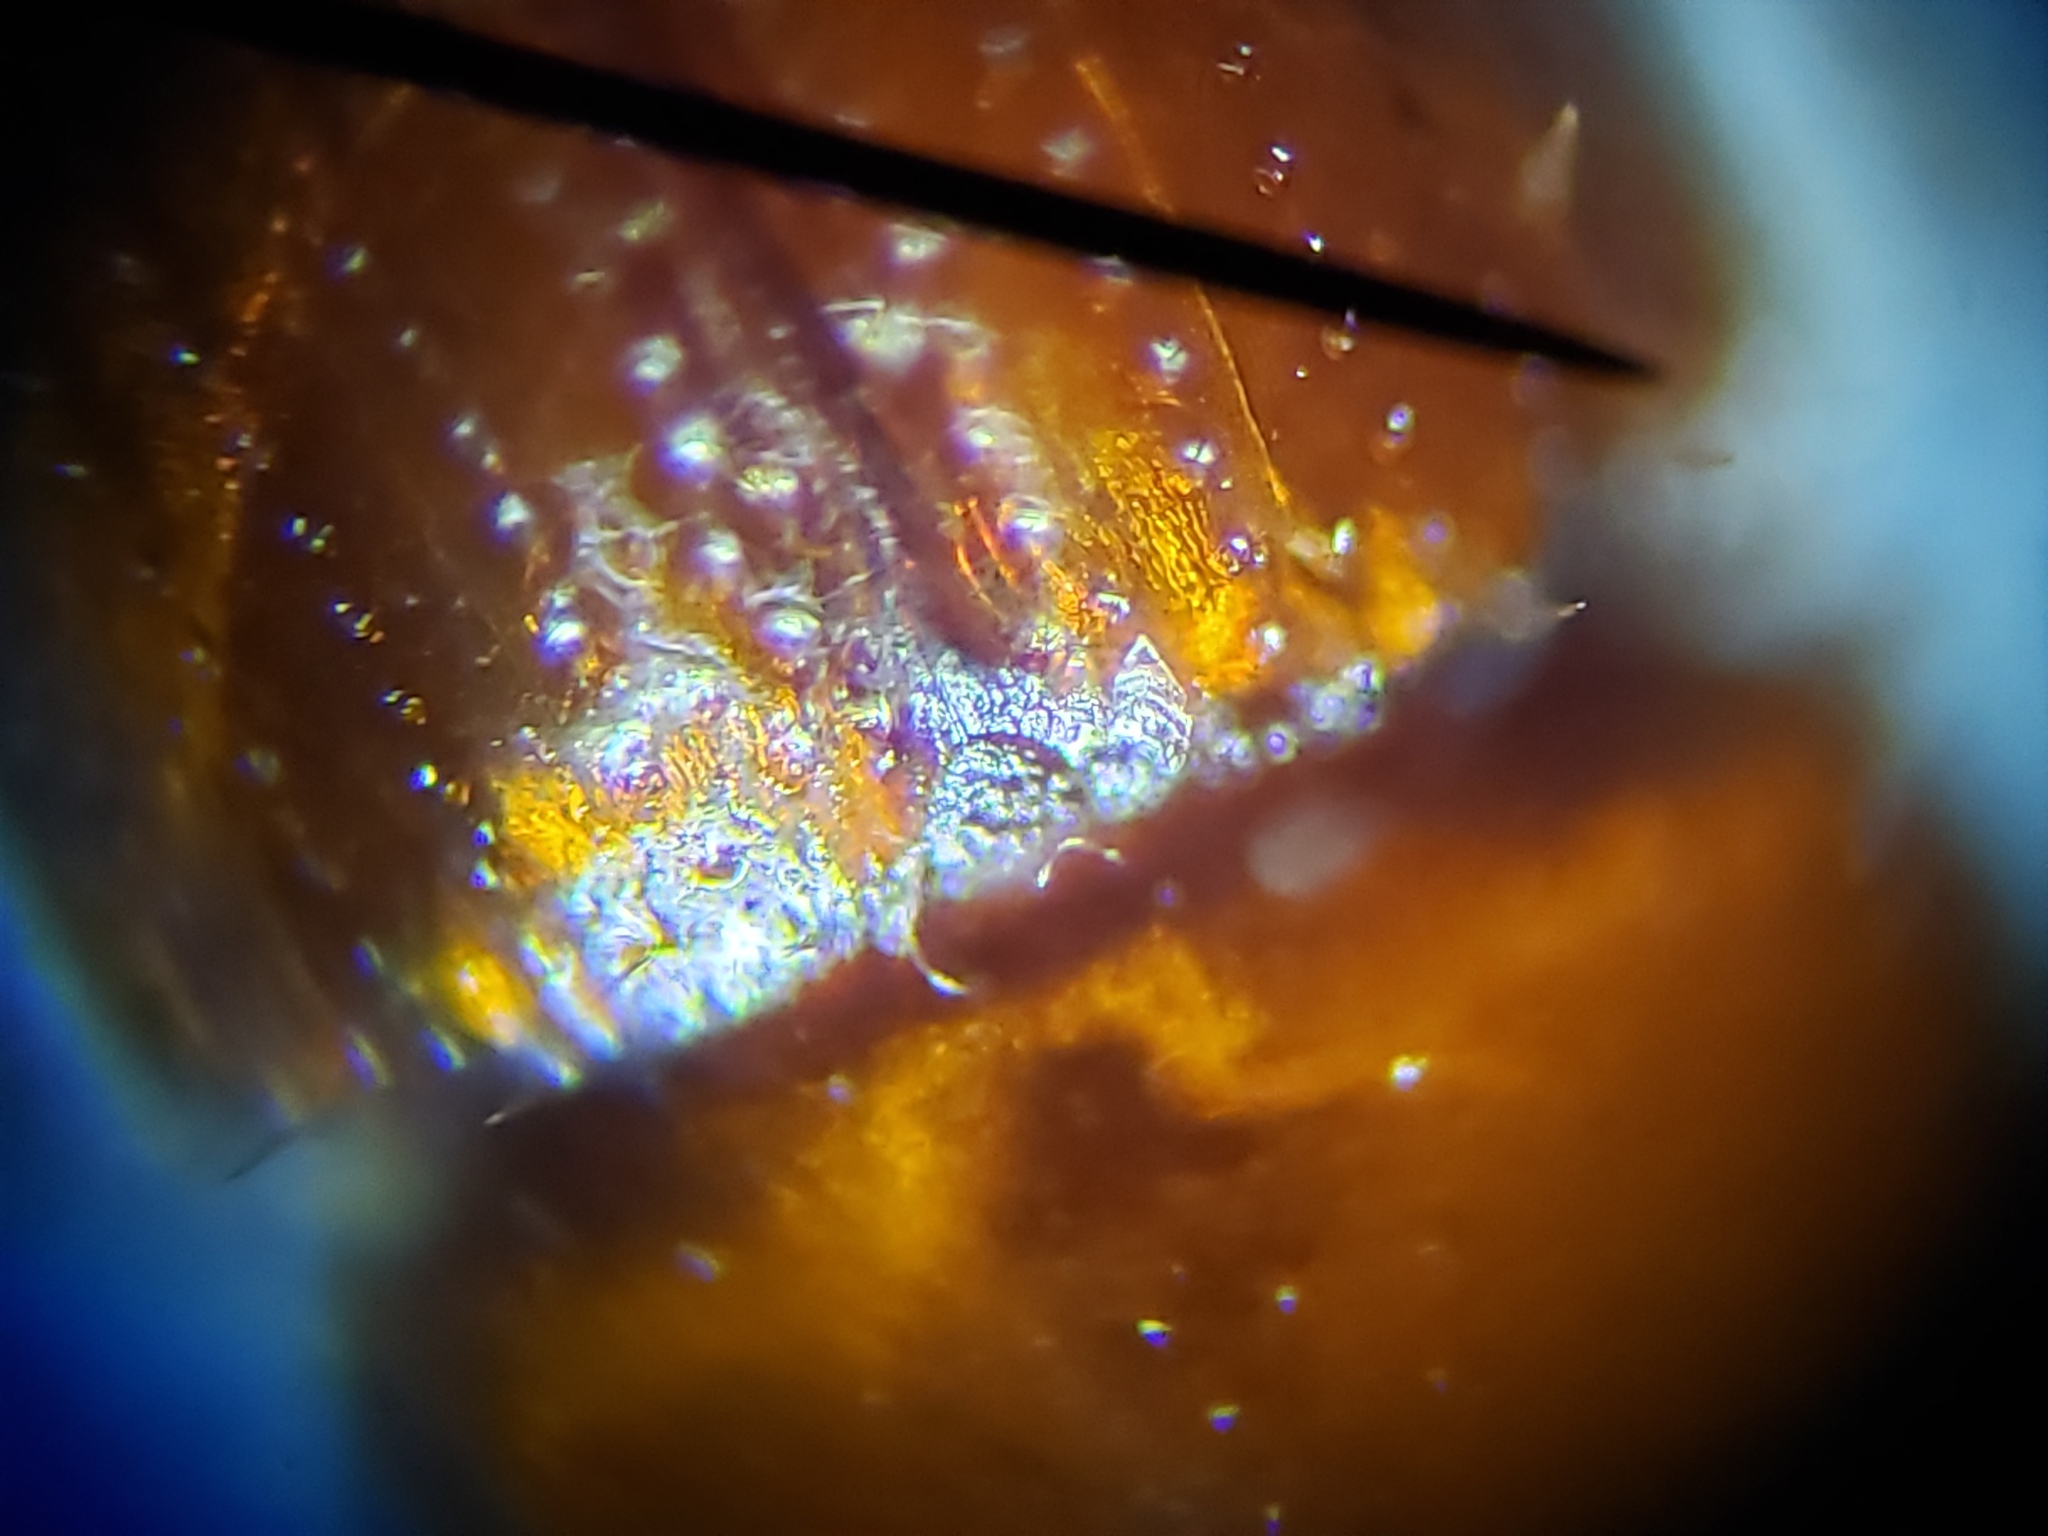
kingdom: Animalia
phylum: Arthropoda
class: Insecta
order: Coleoptera
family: Curculionidae
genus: Xyleborus
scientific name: Xyleborus ferrugineus
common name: Ambrosia beetle
